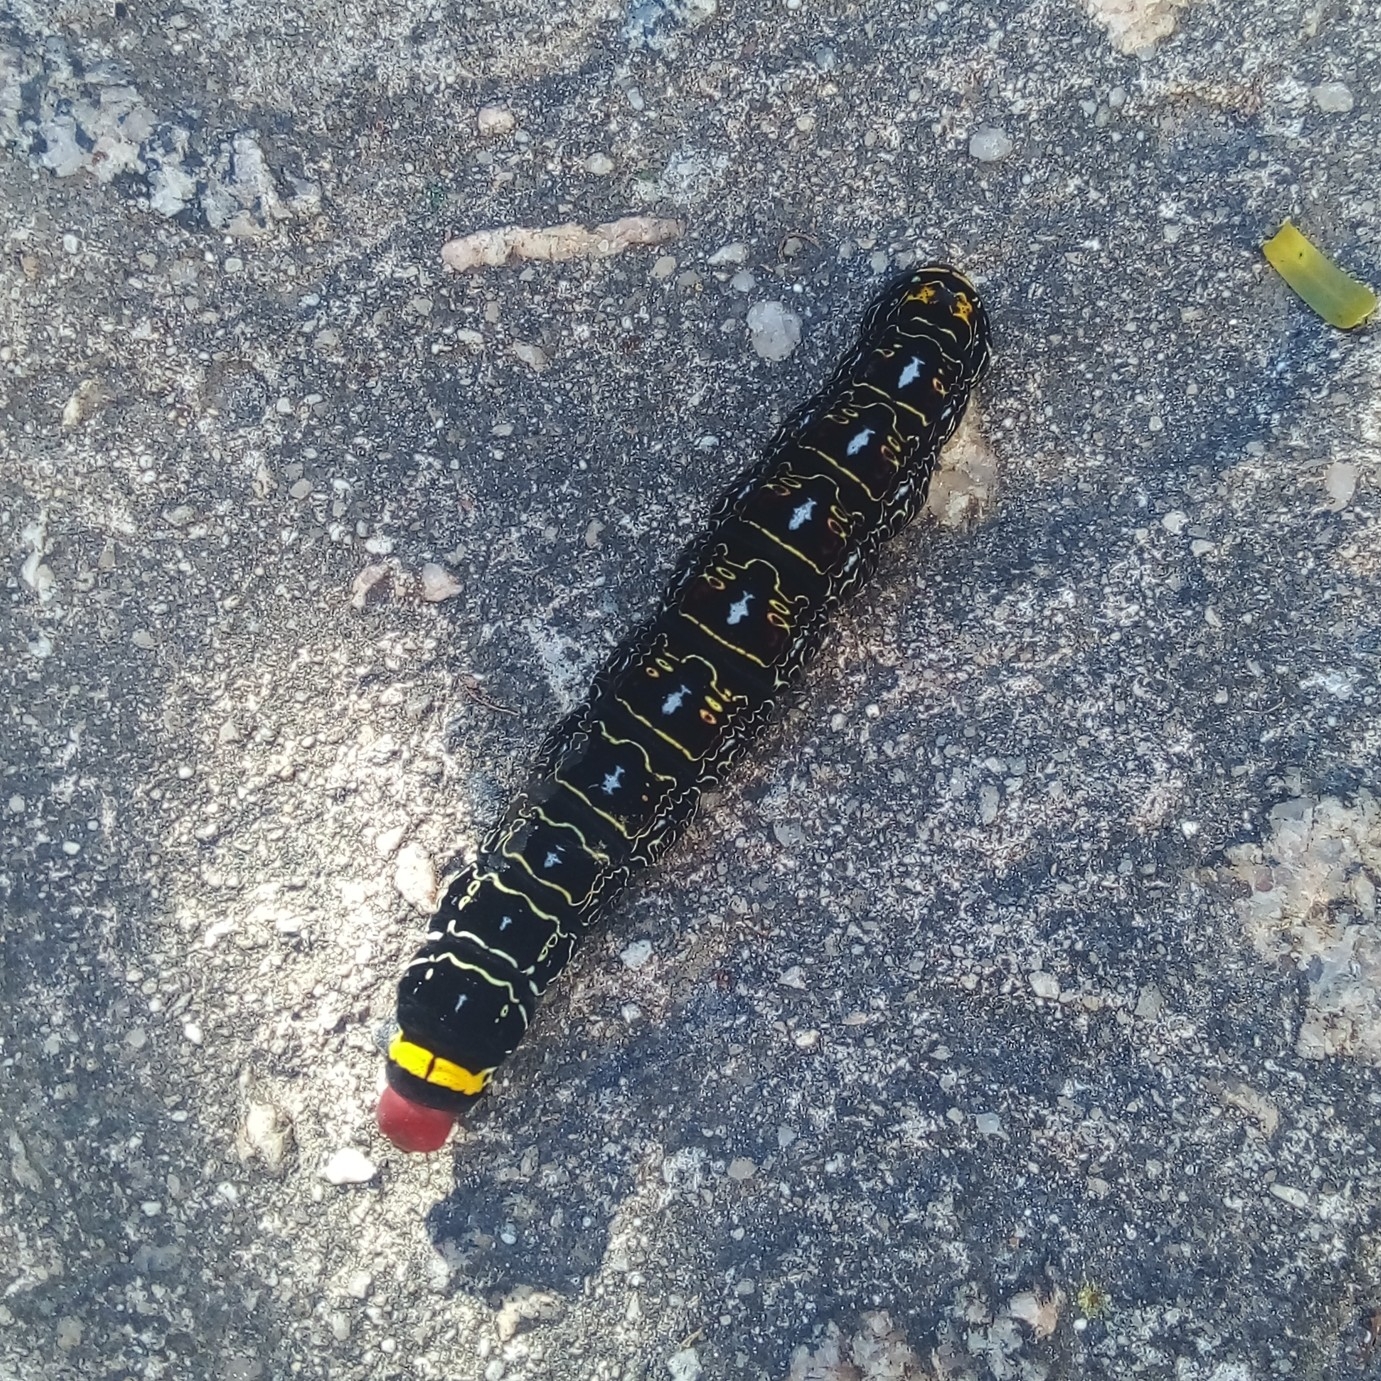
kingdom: Animalia
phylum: Arthropoda
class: Insecta
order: Lepidoptera
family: Sphingidae
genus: Isognathus
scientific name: Isognathus caricae
